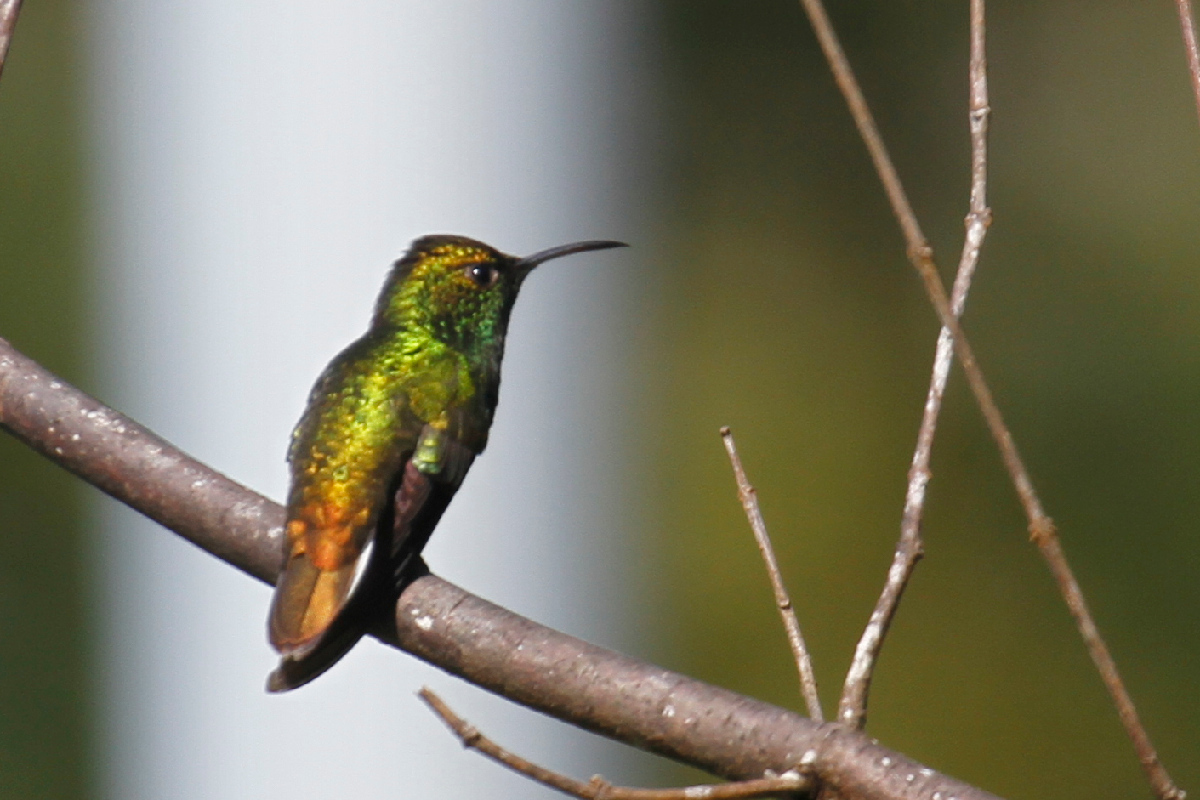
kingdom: Animalia
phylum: Chordata
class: Aves
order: Apodiformes
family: Trochilidae
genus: Microchera
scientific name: Microchera cupreiceps
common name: Coppery-headed emerald
